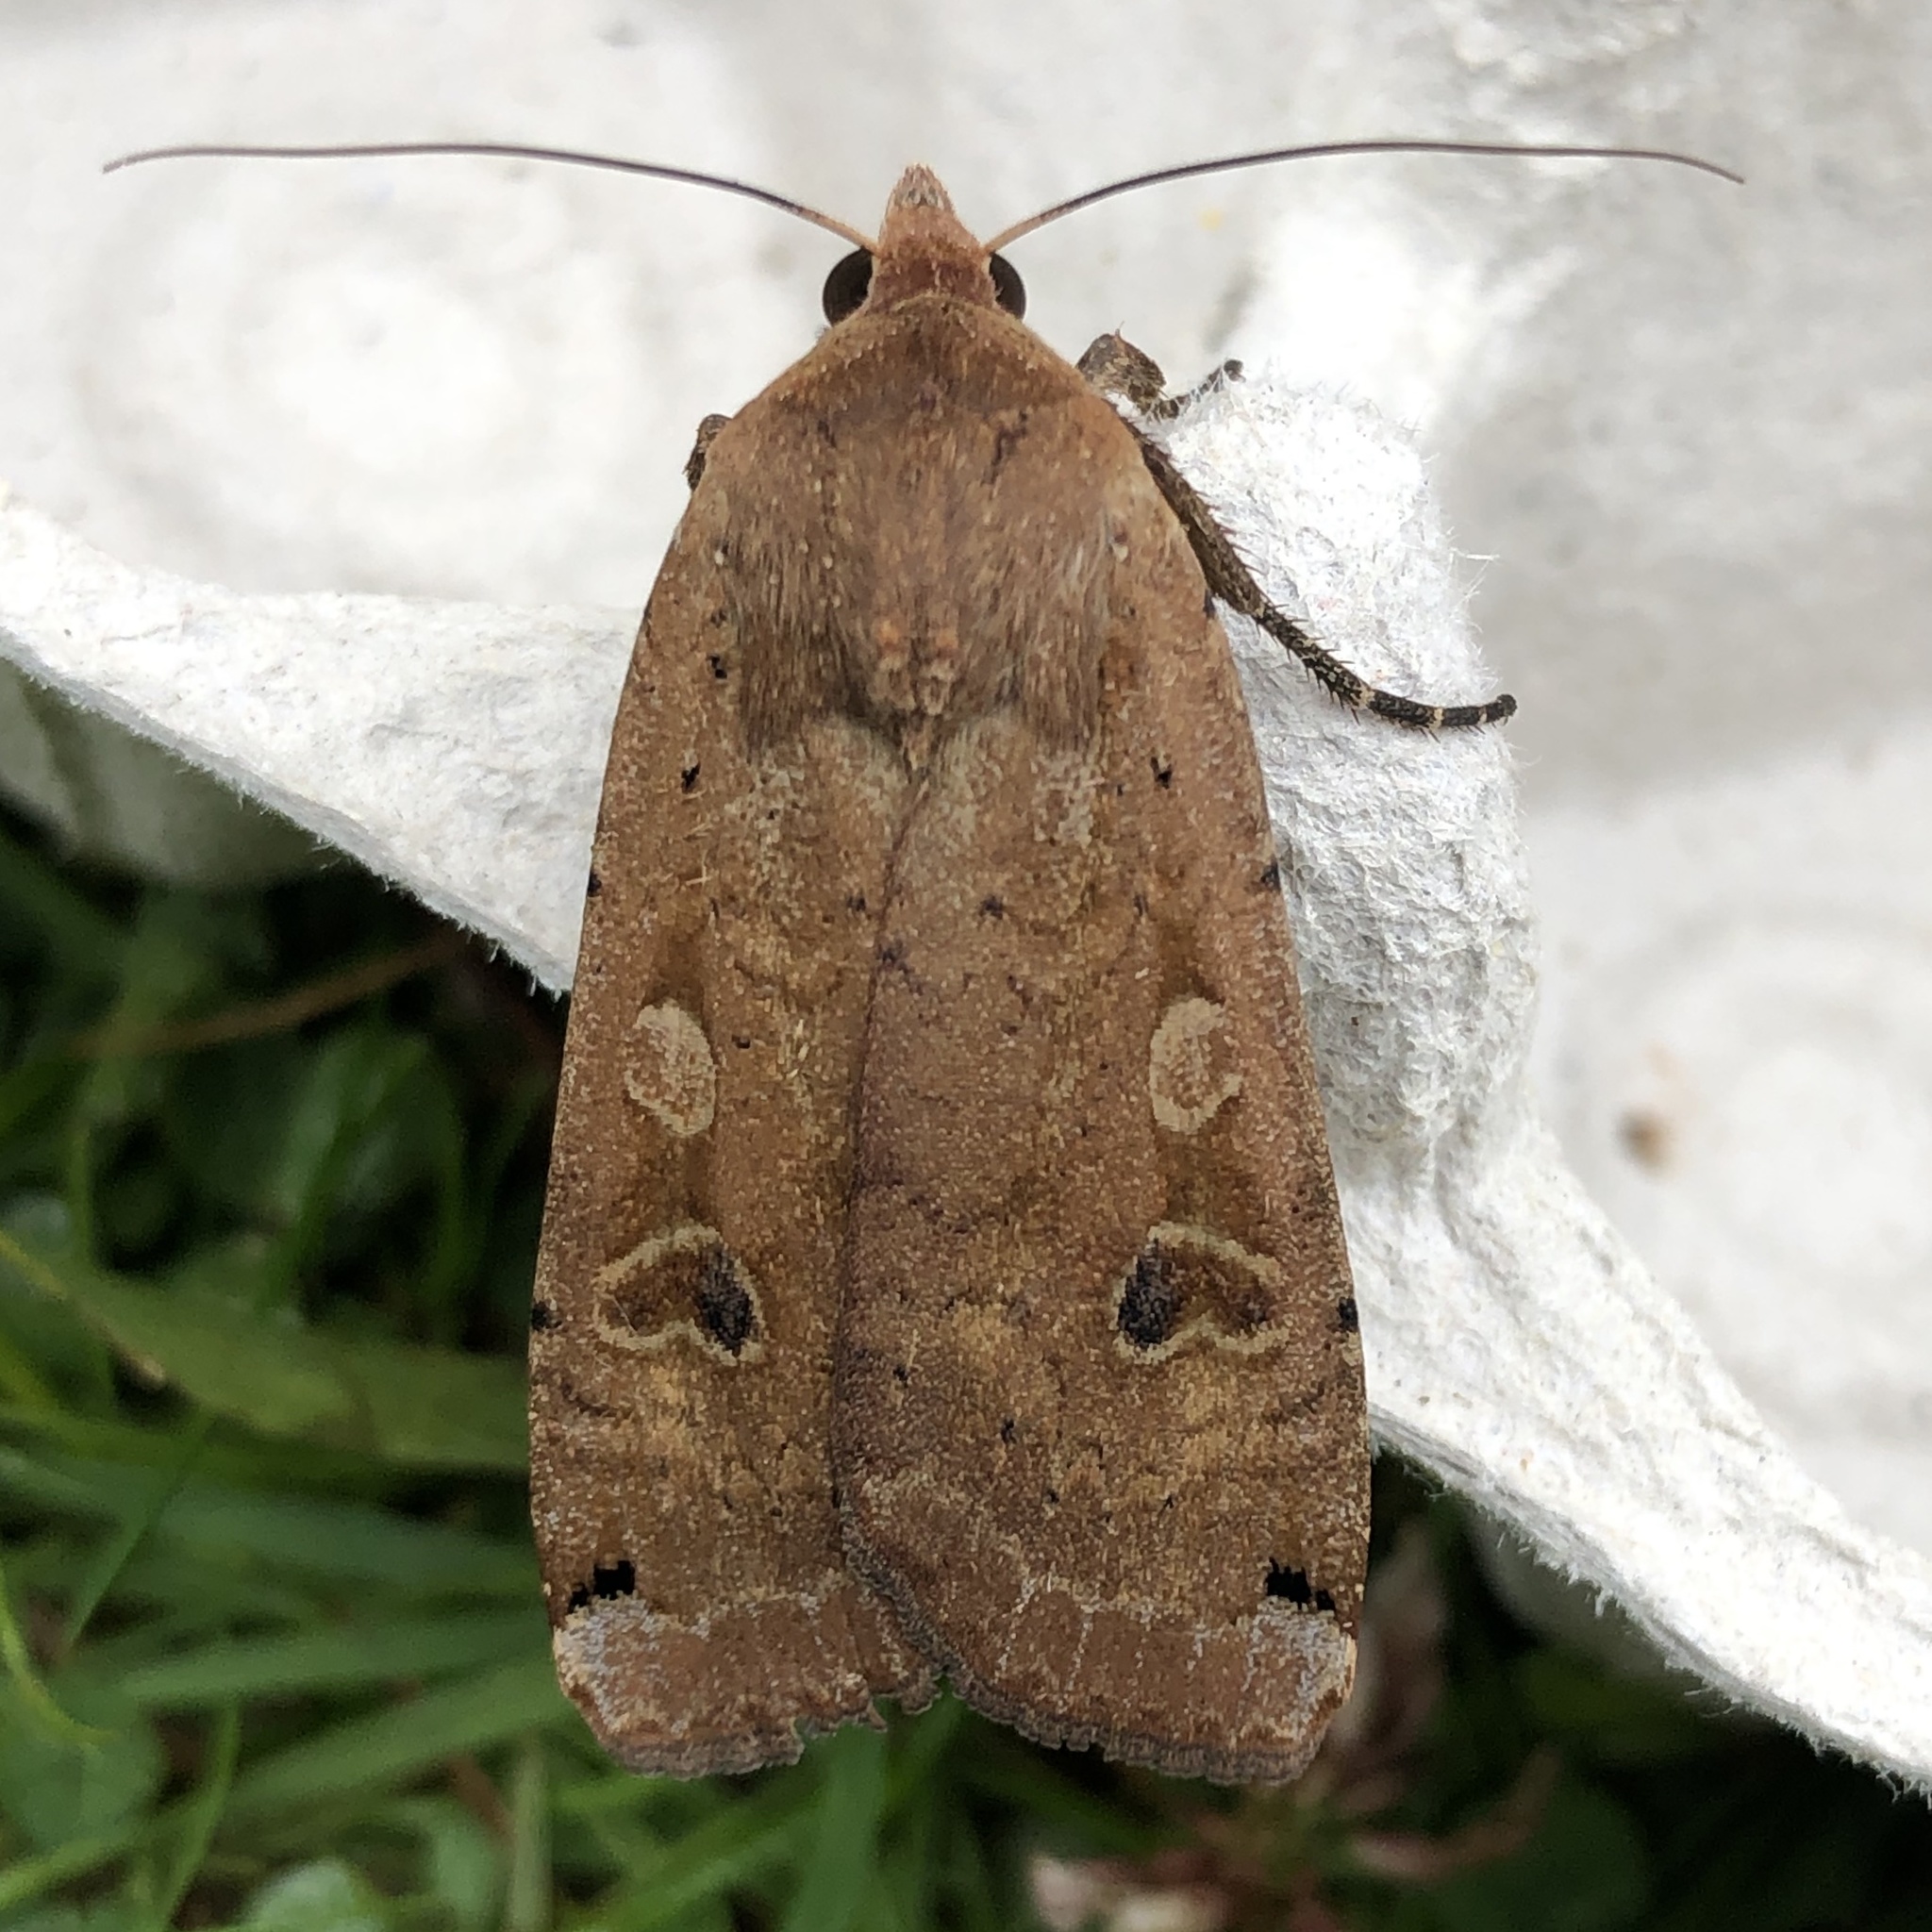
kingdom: Animalia
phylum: Arthropoda
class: Insecta
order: Lepidoptera
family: Noctuidae
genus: Noctua
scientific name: Noctua pronuba
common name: Large yellow underwing
